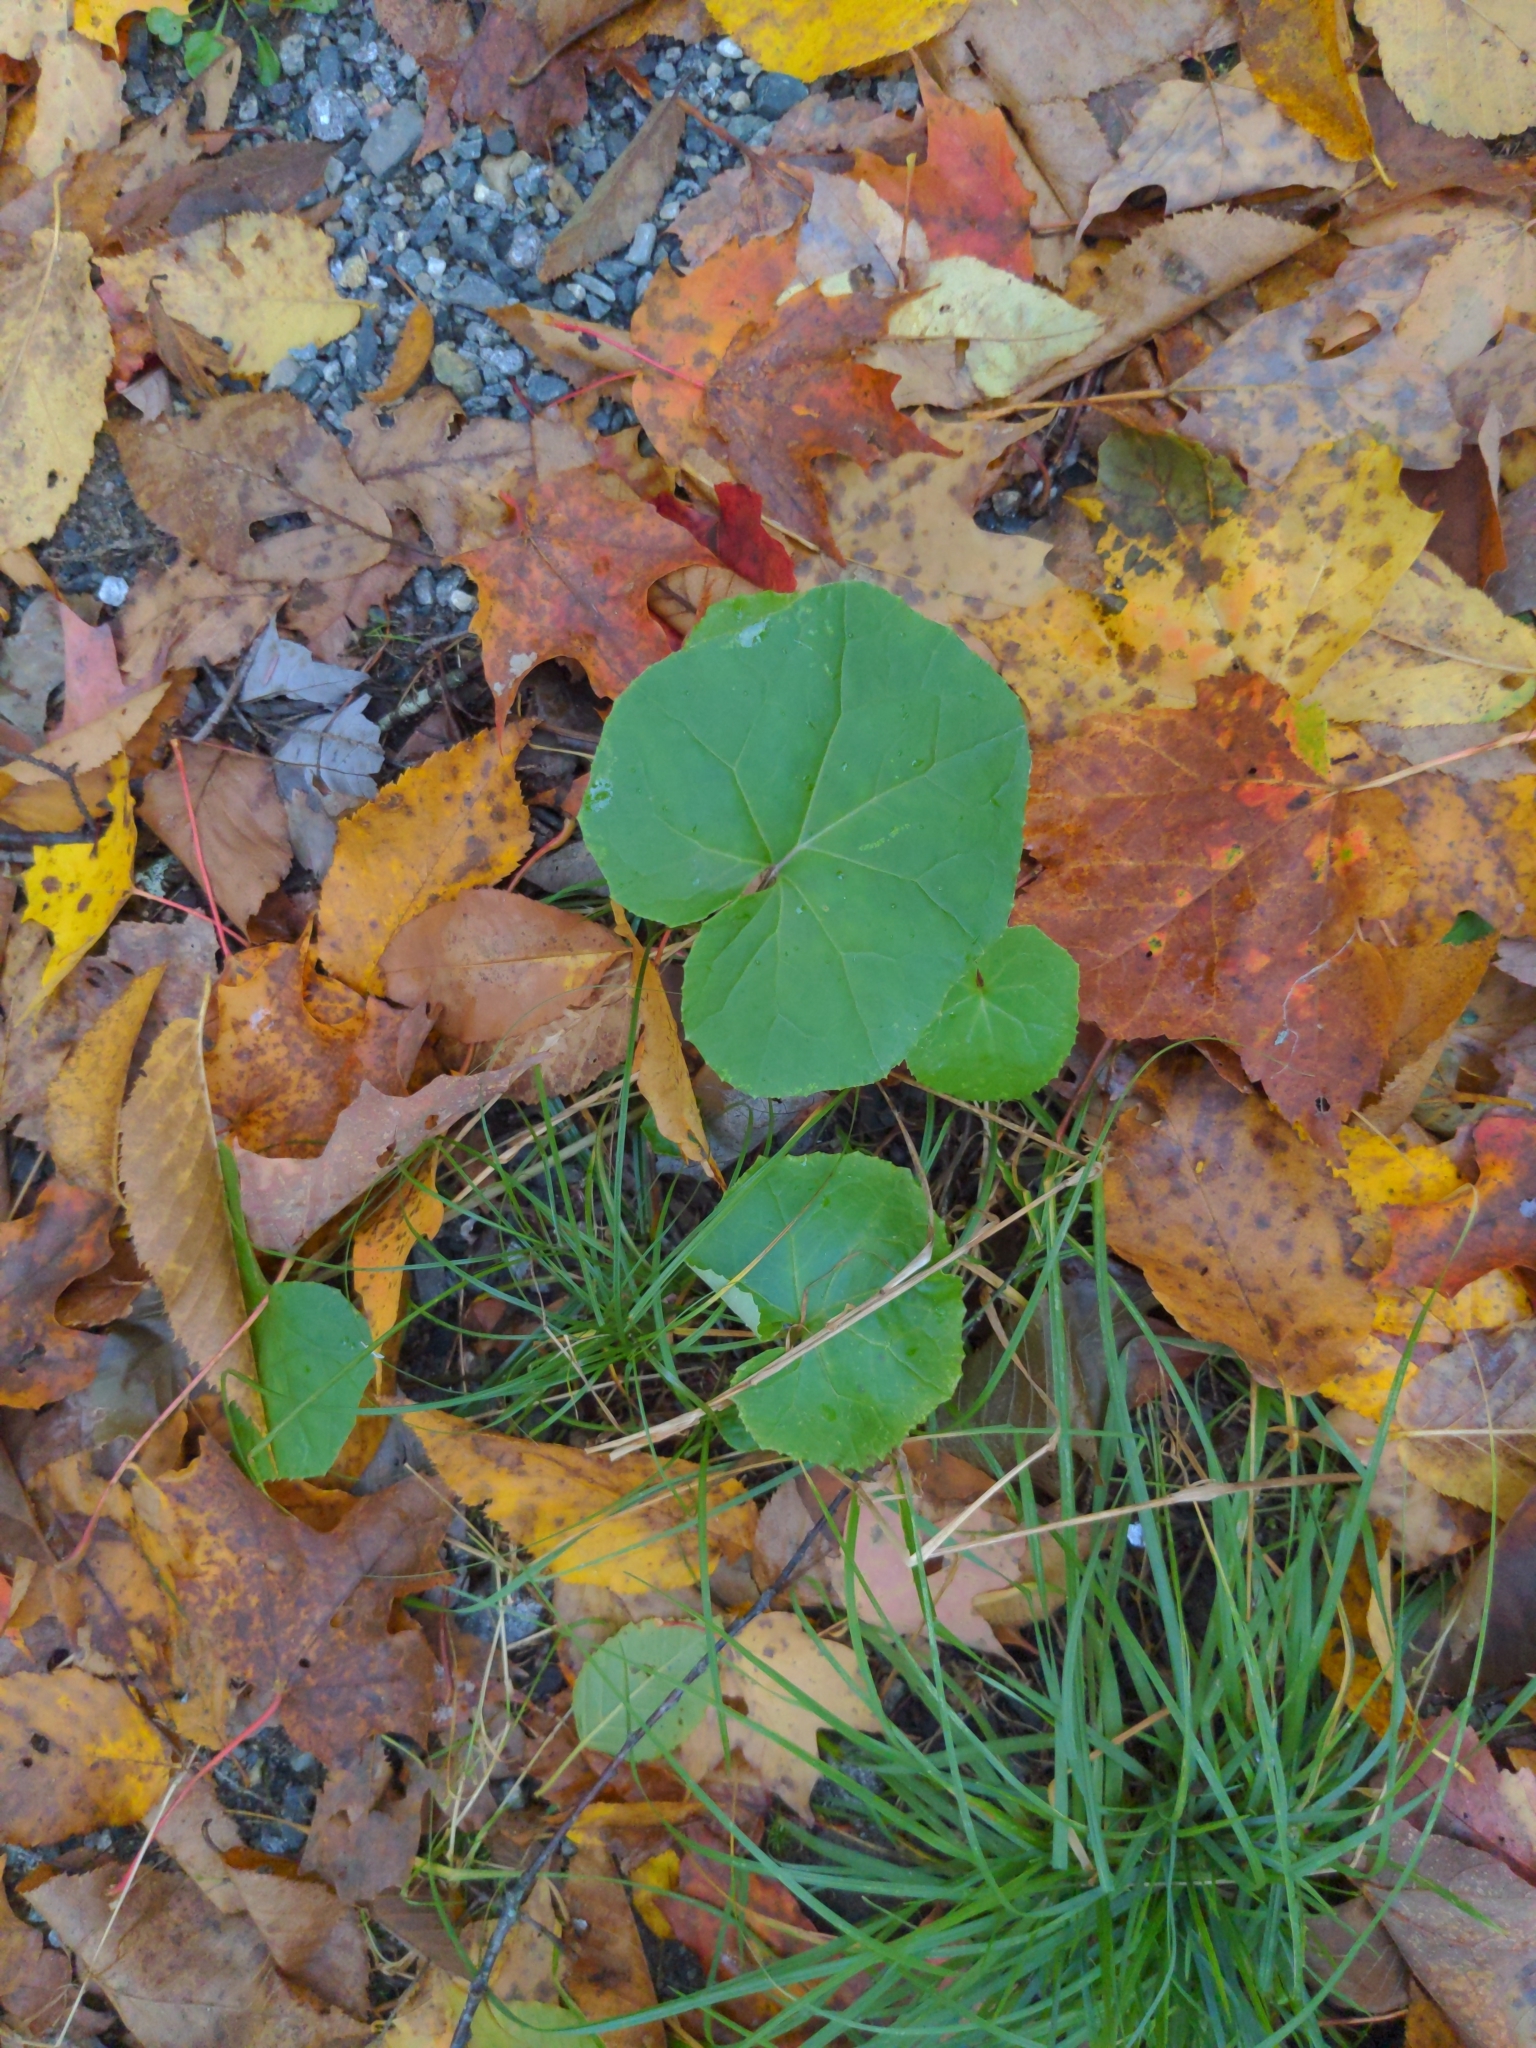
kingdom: Plantae
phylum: Tracheophyta
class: Magnoliopsida
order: Asterales
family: Asteraceae
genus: Tussilago
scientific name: Tussilago farfara
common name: Coltsfoot
